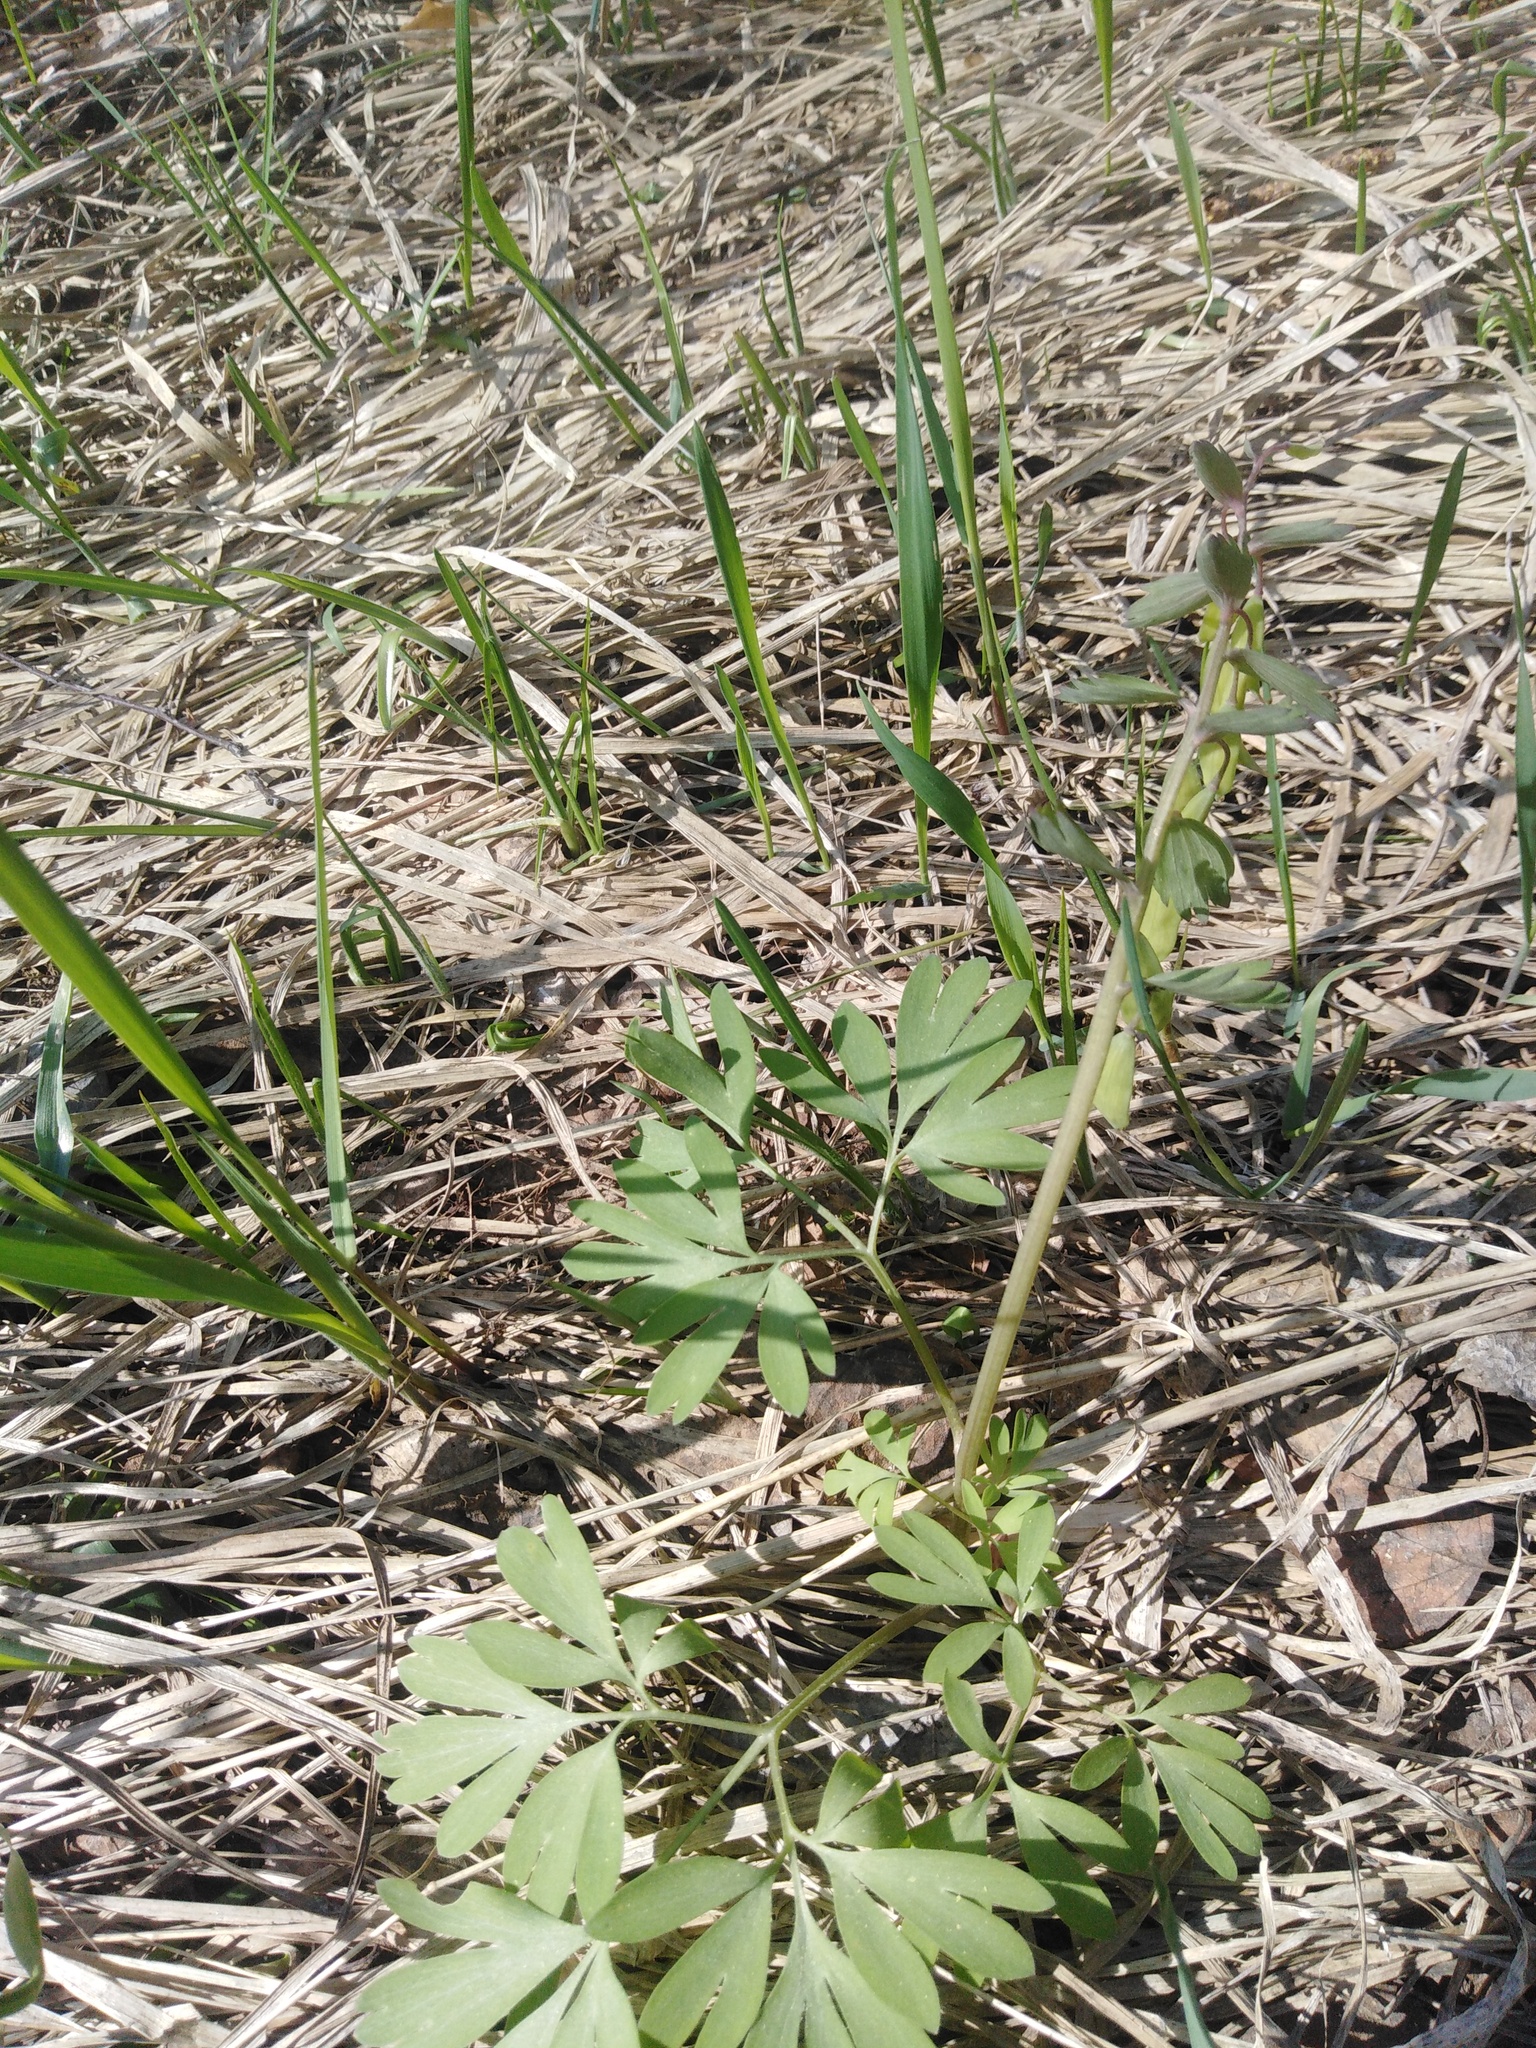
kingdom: Plantae
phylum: Tracheophyta
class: Magnoliopsida
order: Ranunculales
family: Papaveraceae
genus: Corydalis
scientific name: Corydalis solida
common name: Bird-in-a-bush
